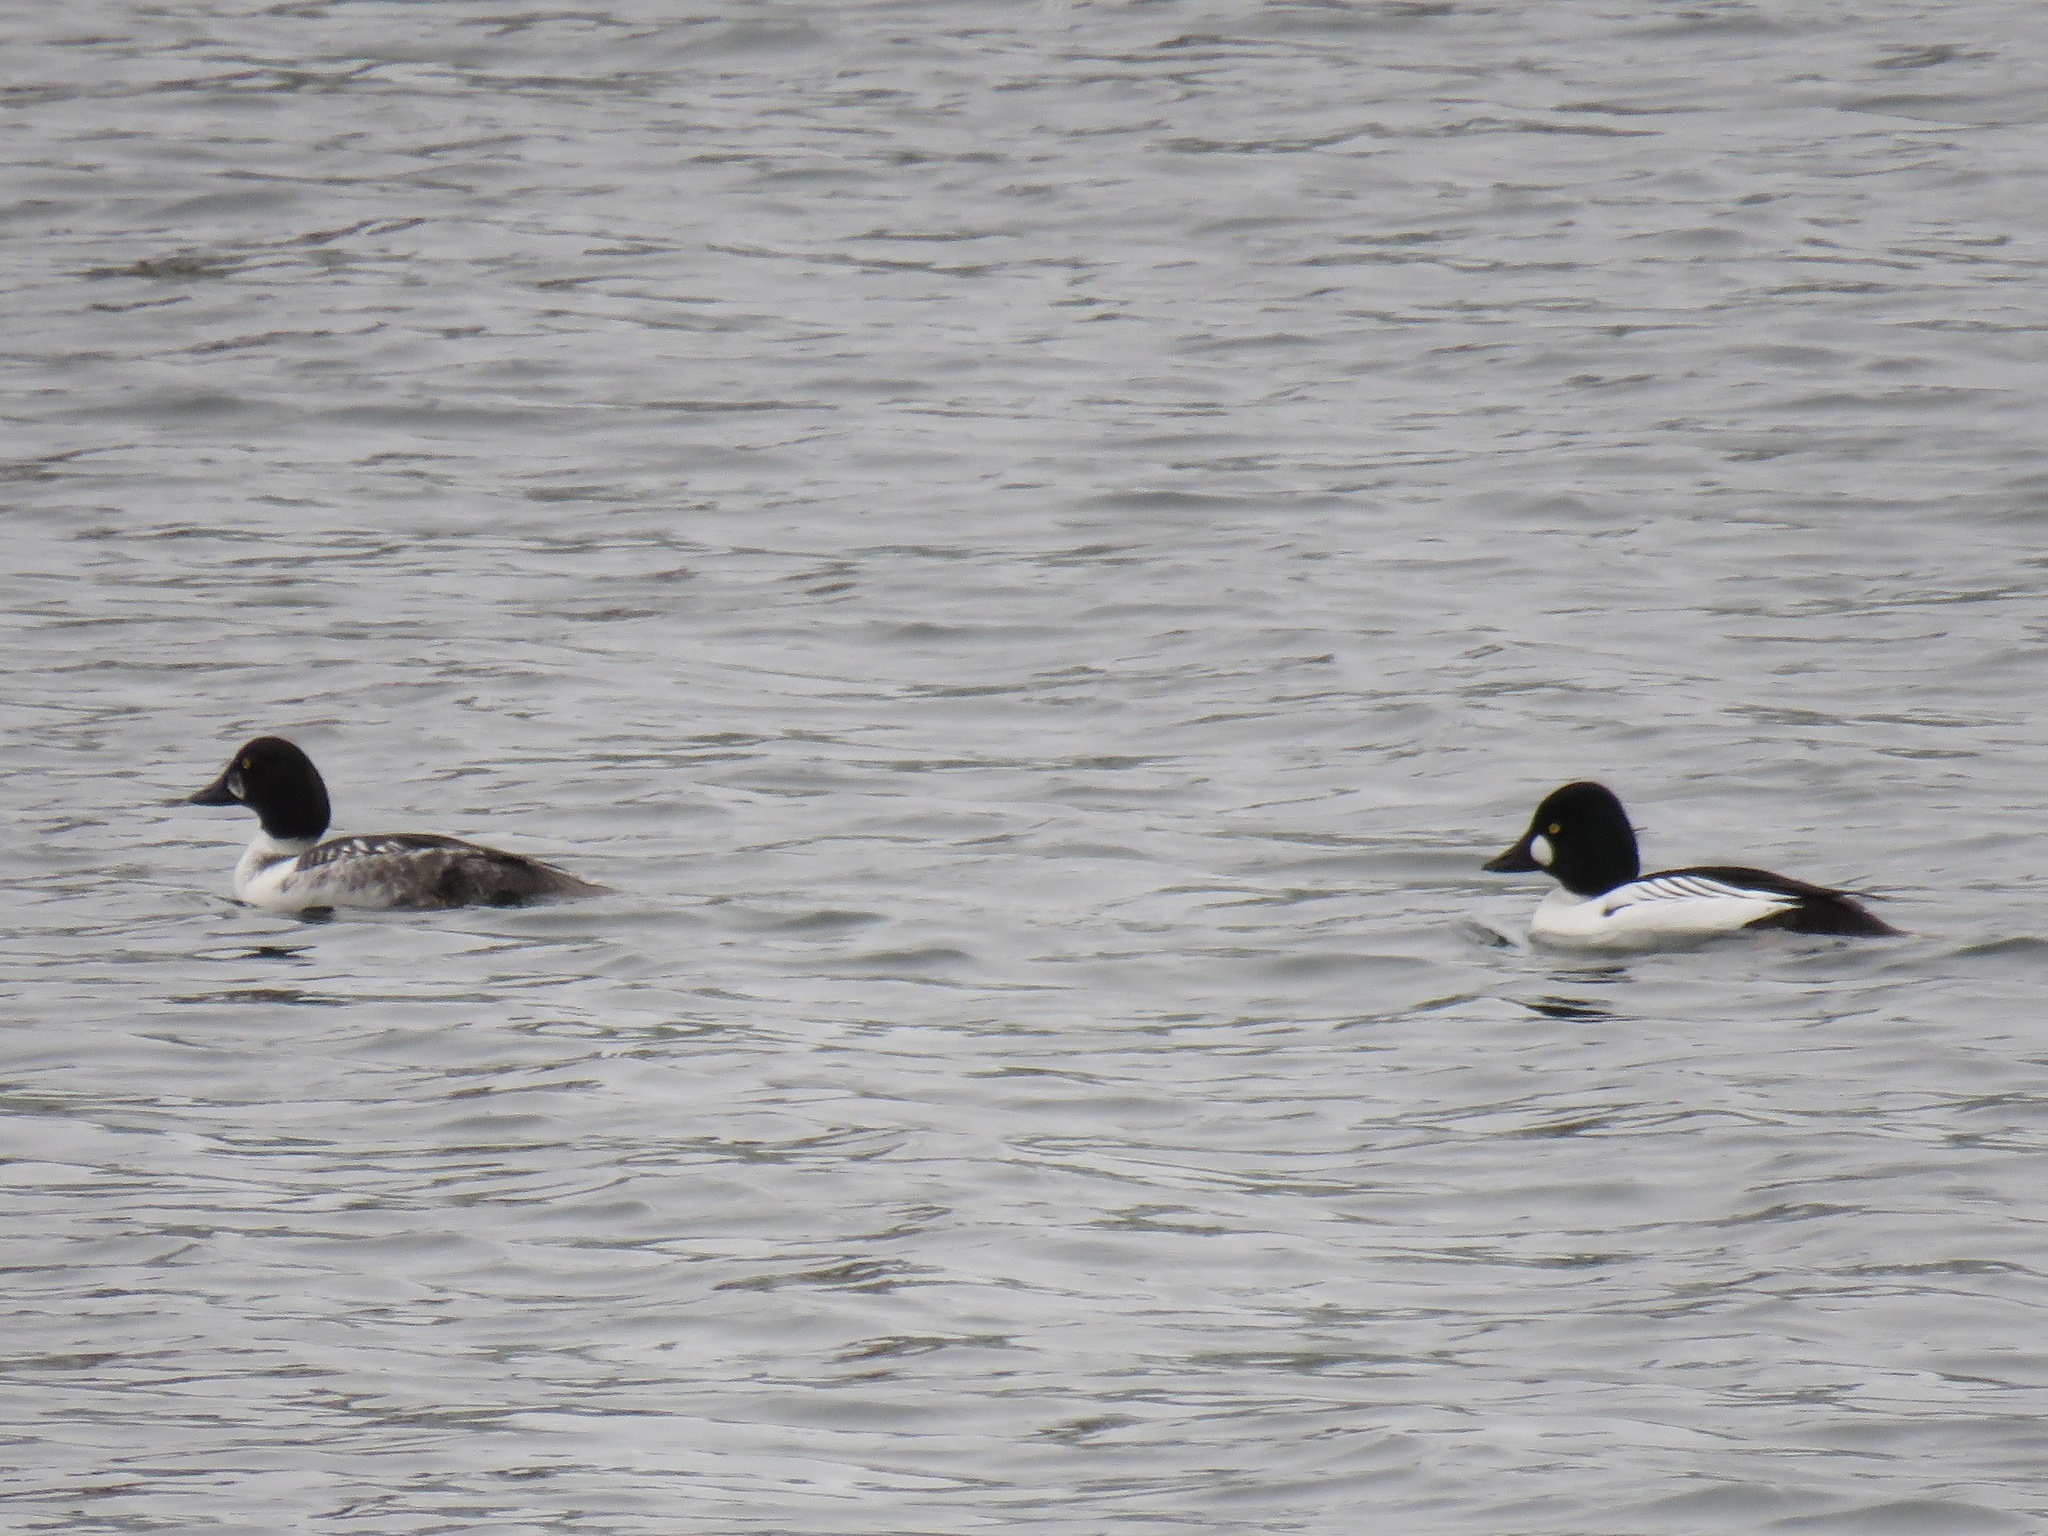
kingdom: Animalia
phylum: Chordata
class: Aves
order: Anseriformes
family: Anatidae
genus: Bucephala
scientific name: Bucephala clangula
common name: Common goldeneye
